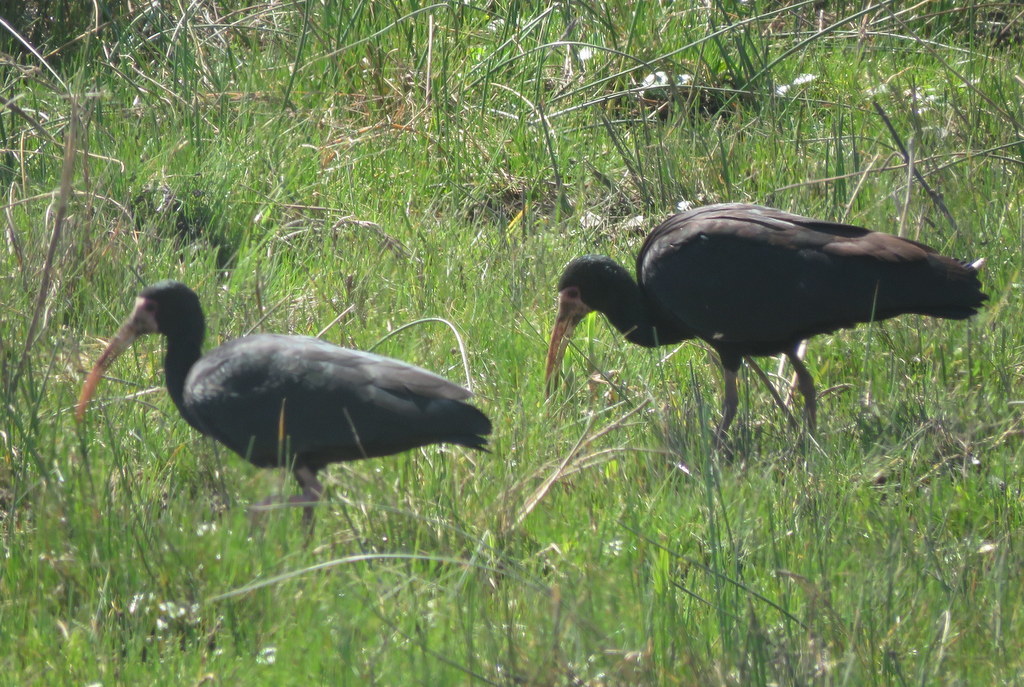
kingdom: Animalia
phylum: Chordata
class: Aves
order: Pelecaniformes
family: Threskiornithidae
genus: Phimosus
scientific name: Phimosus infuscatus
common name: Bare-faced ibis
